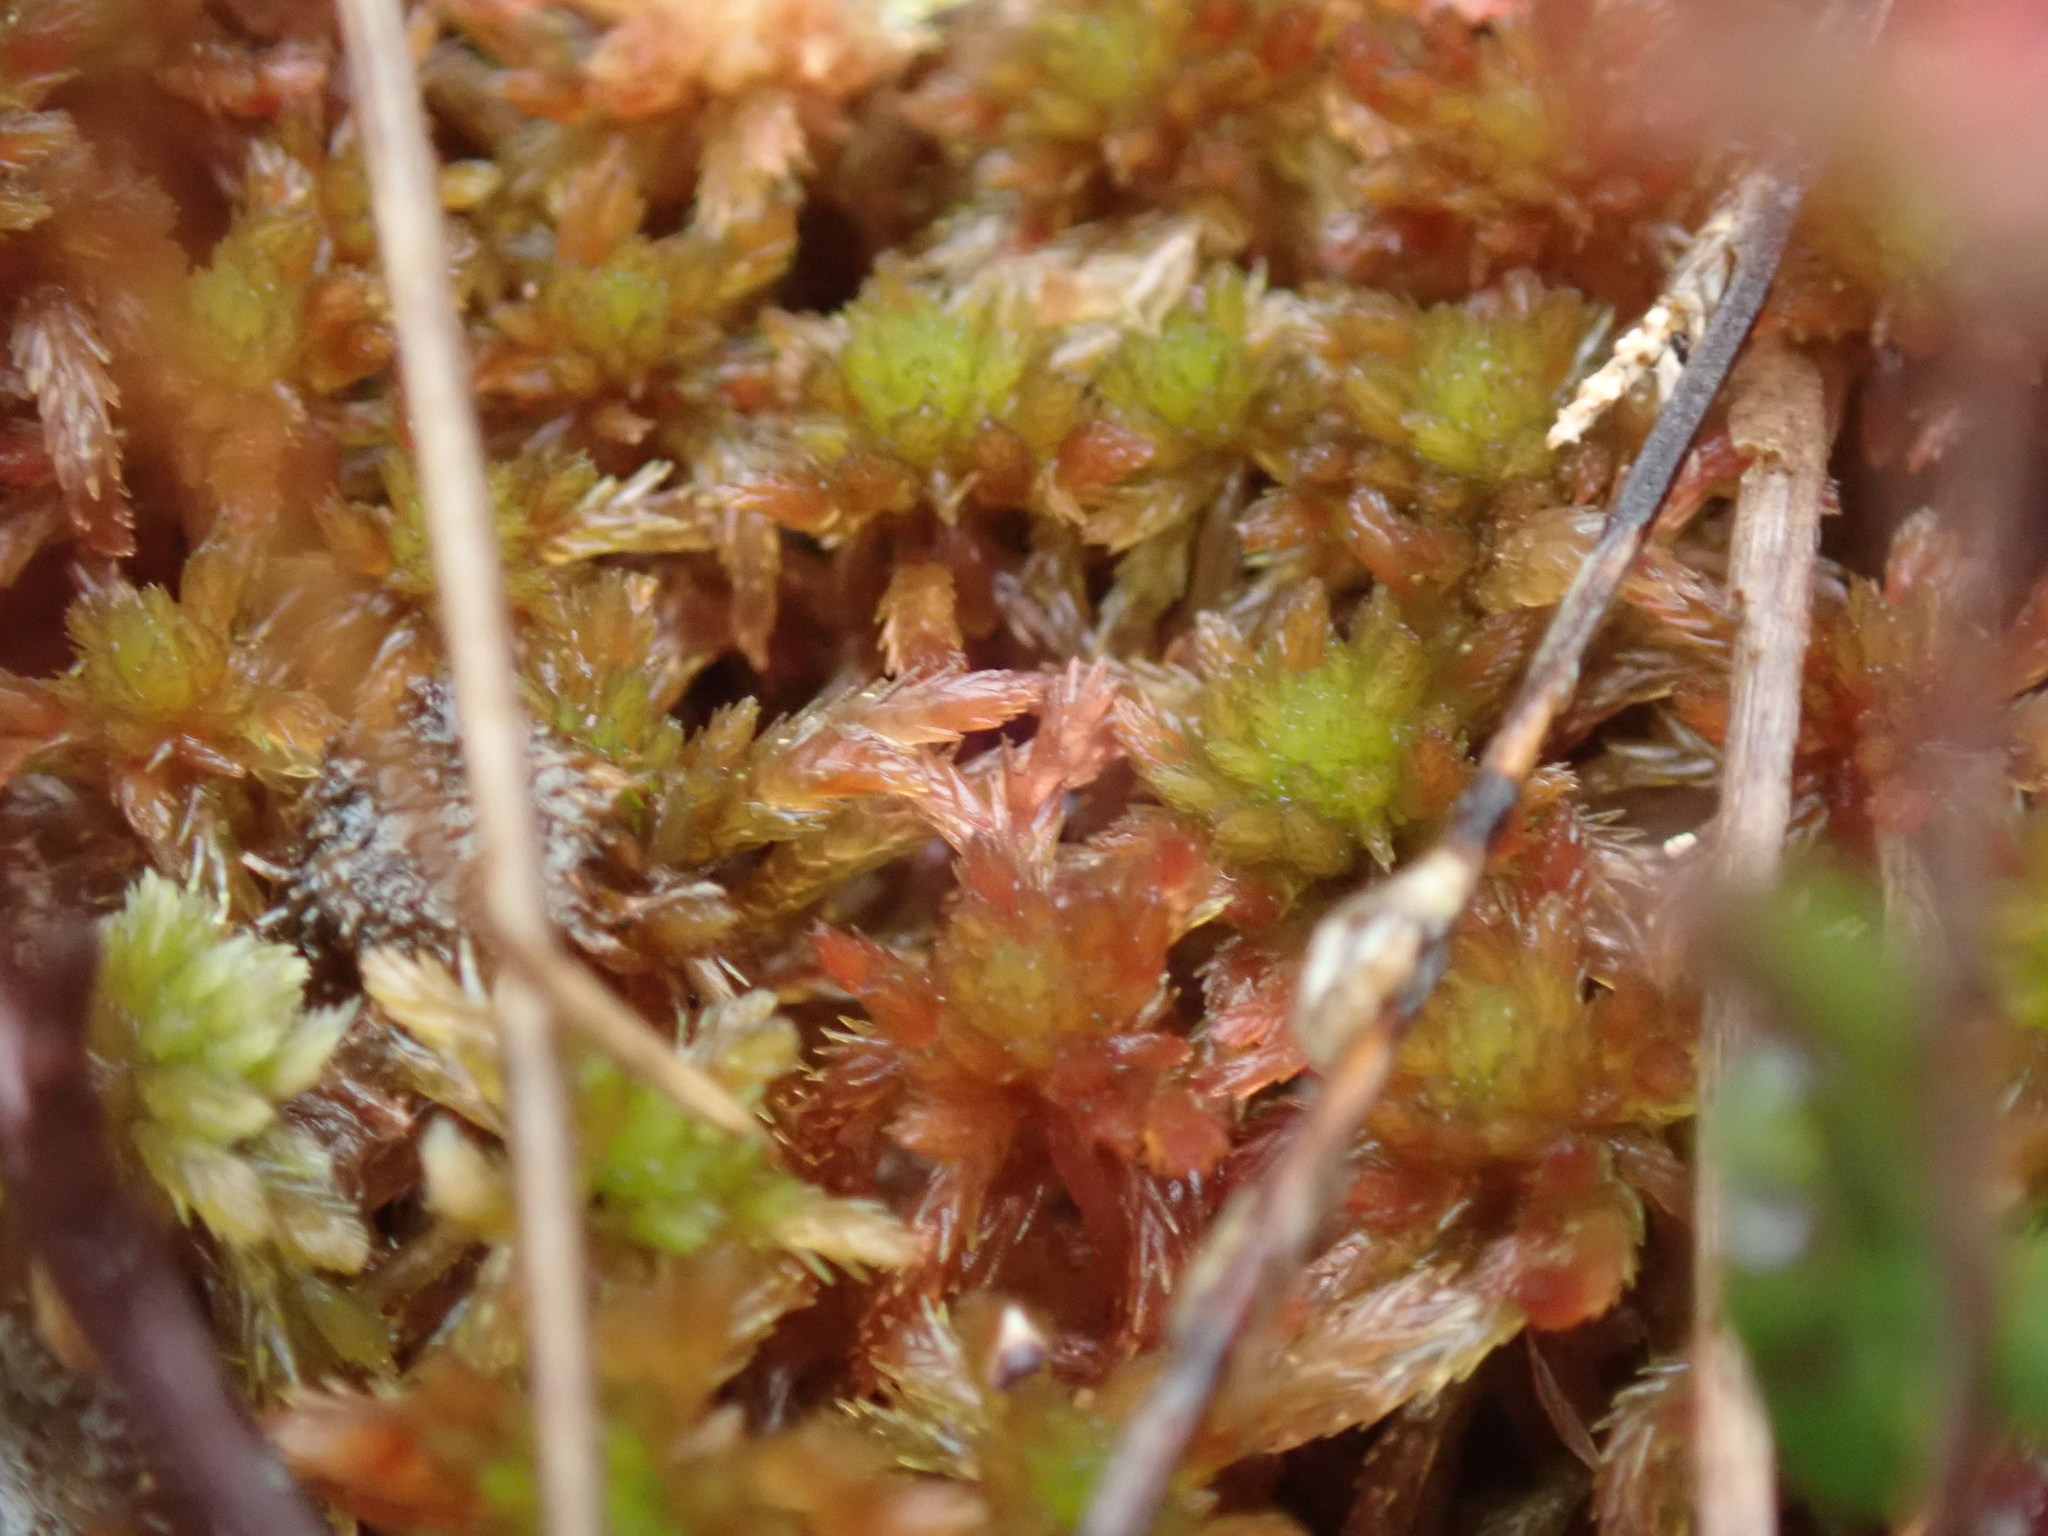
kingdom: Plantae
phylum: Bryophyta
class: Sphagnopsida
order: Sphagnales
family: Sphagnaceae
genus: Sphagnum
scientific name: Sphagnum subnitens
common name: Lustrous bog-moss
